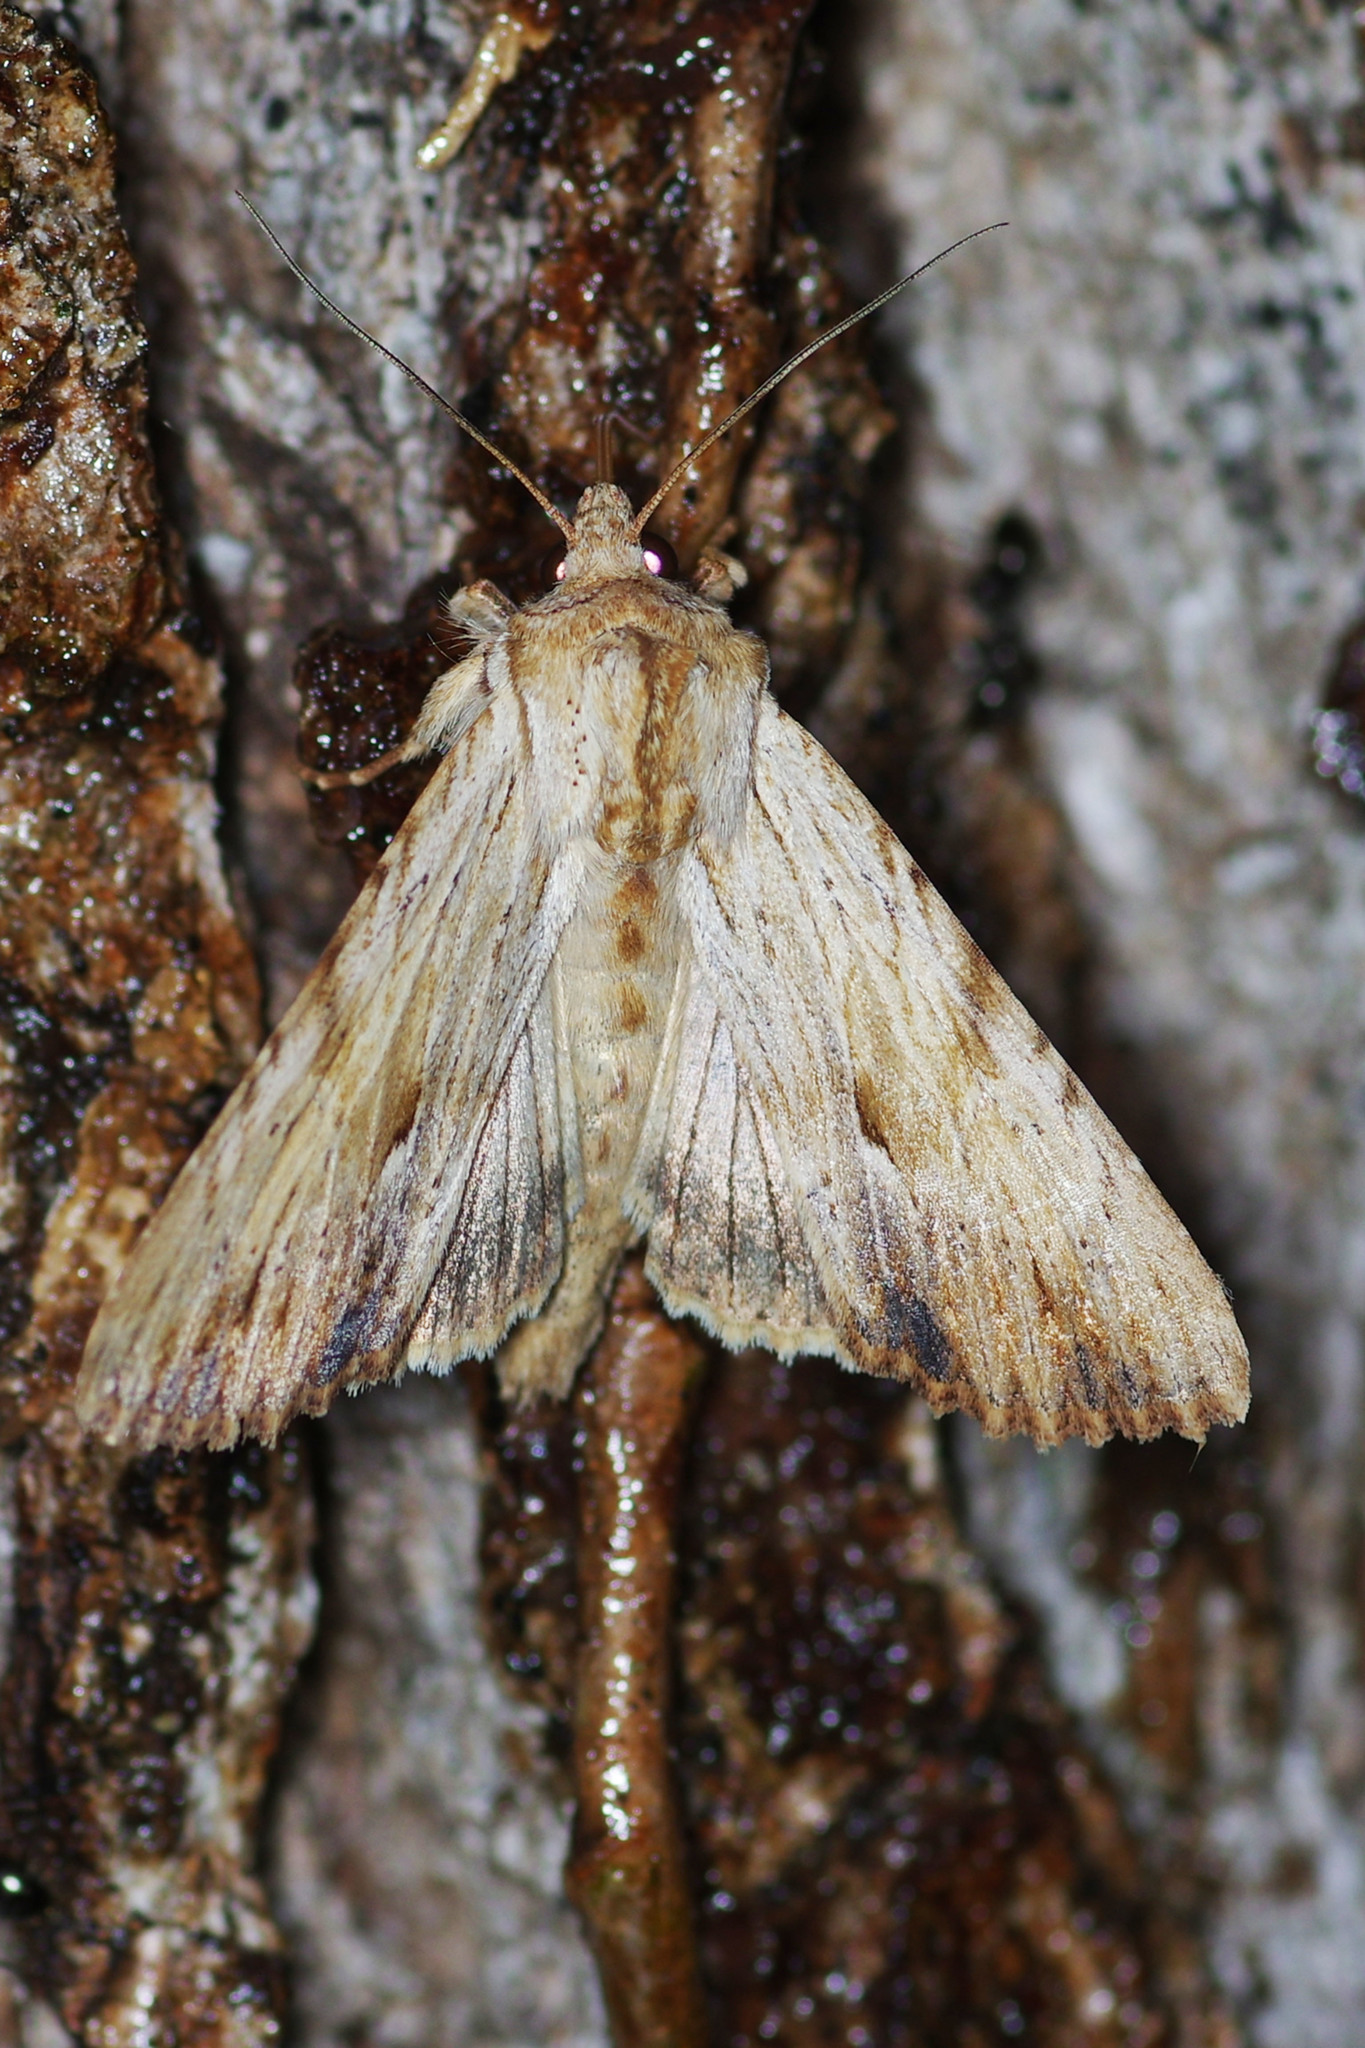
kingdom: Animalia
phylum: Arthropoda
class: Insecta
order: Lepidoptera
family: Noctuidae
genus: Apamea
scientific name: Apamea lithoxylaea
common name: Light arches
